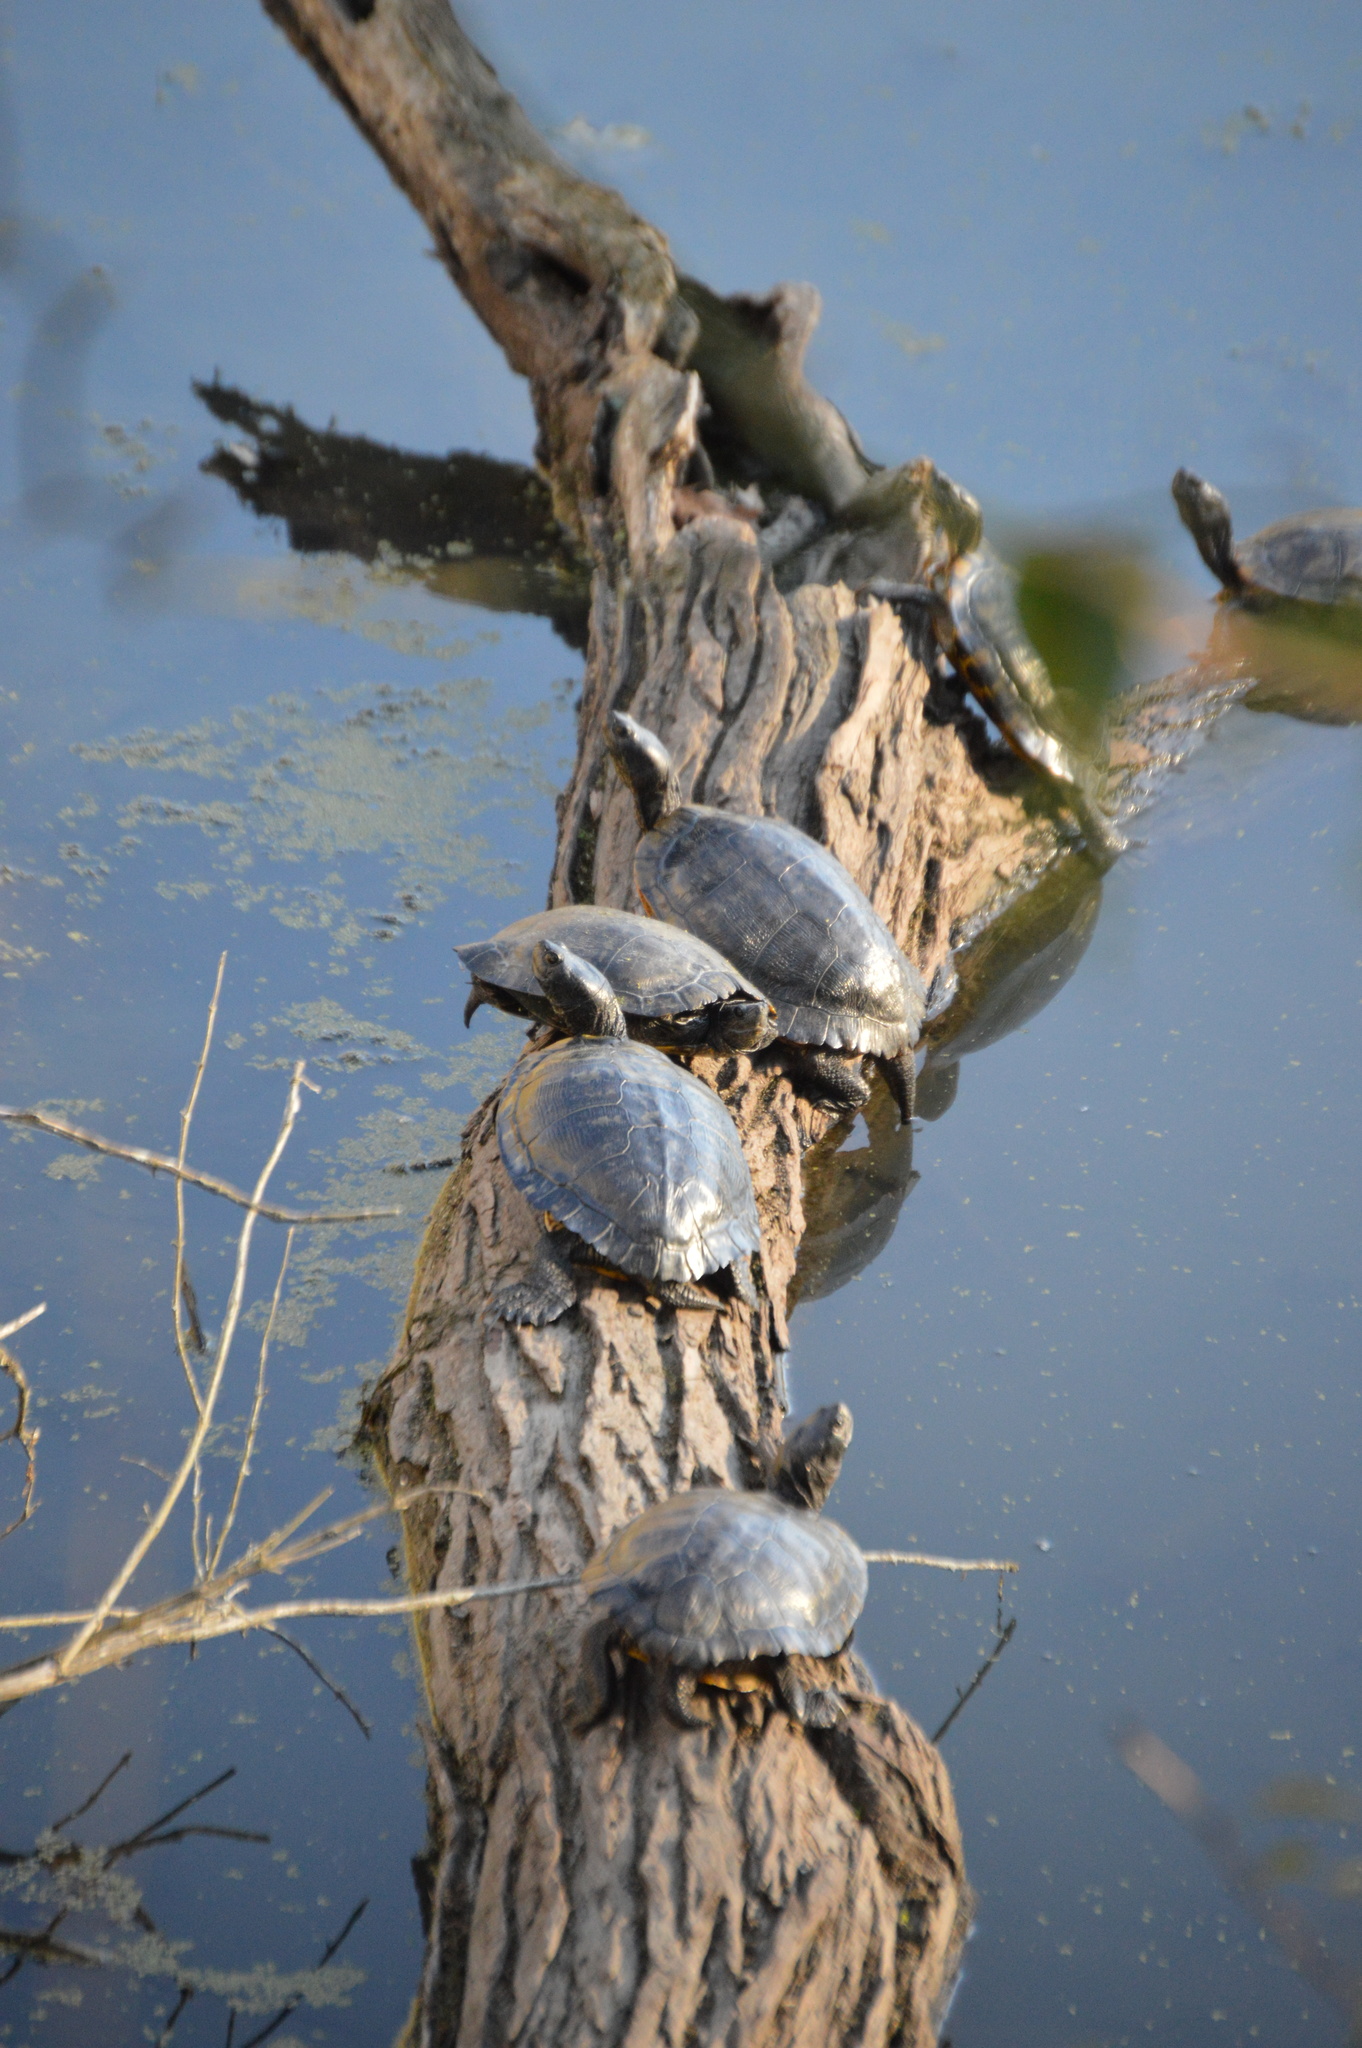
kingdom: Animalia
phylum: Chordata
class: Testudines
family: Emydidae
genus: Trachemys
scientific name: Trachemys scripta
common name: Slider
